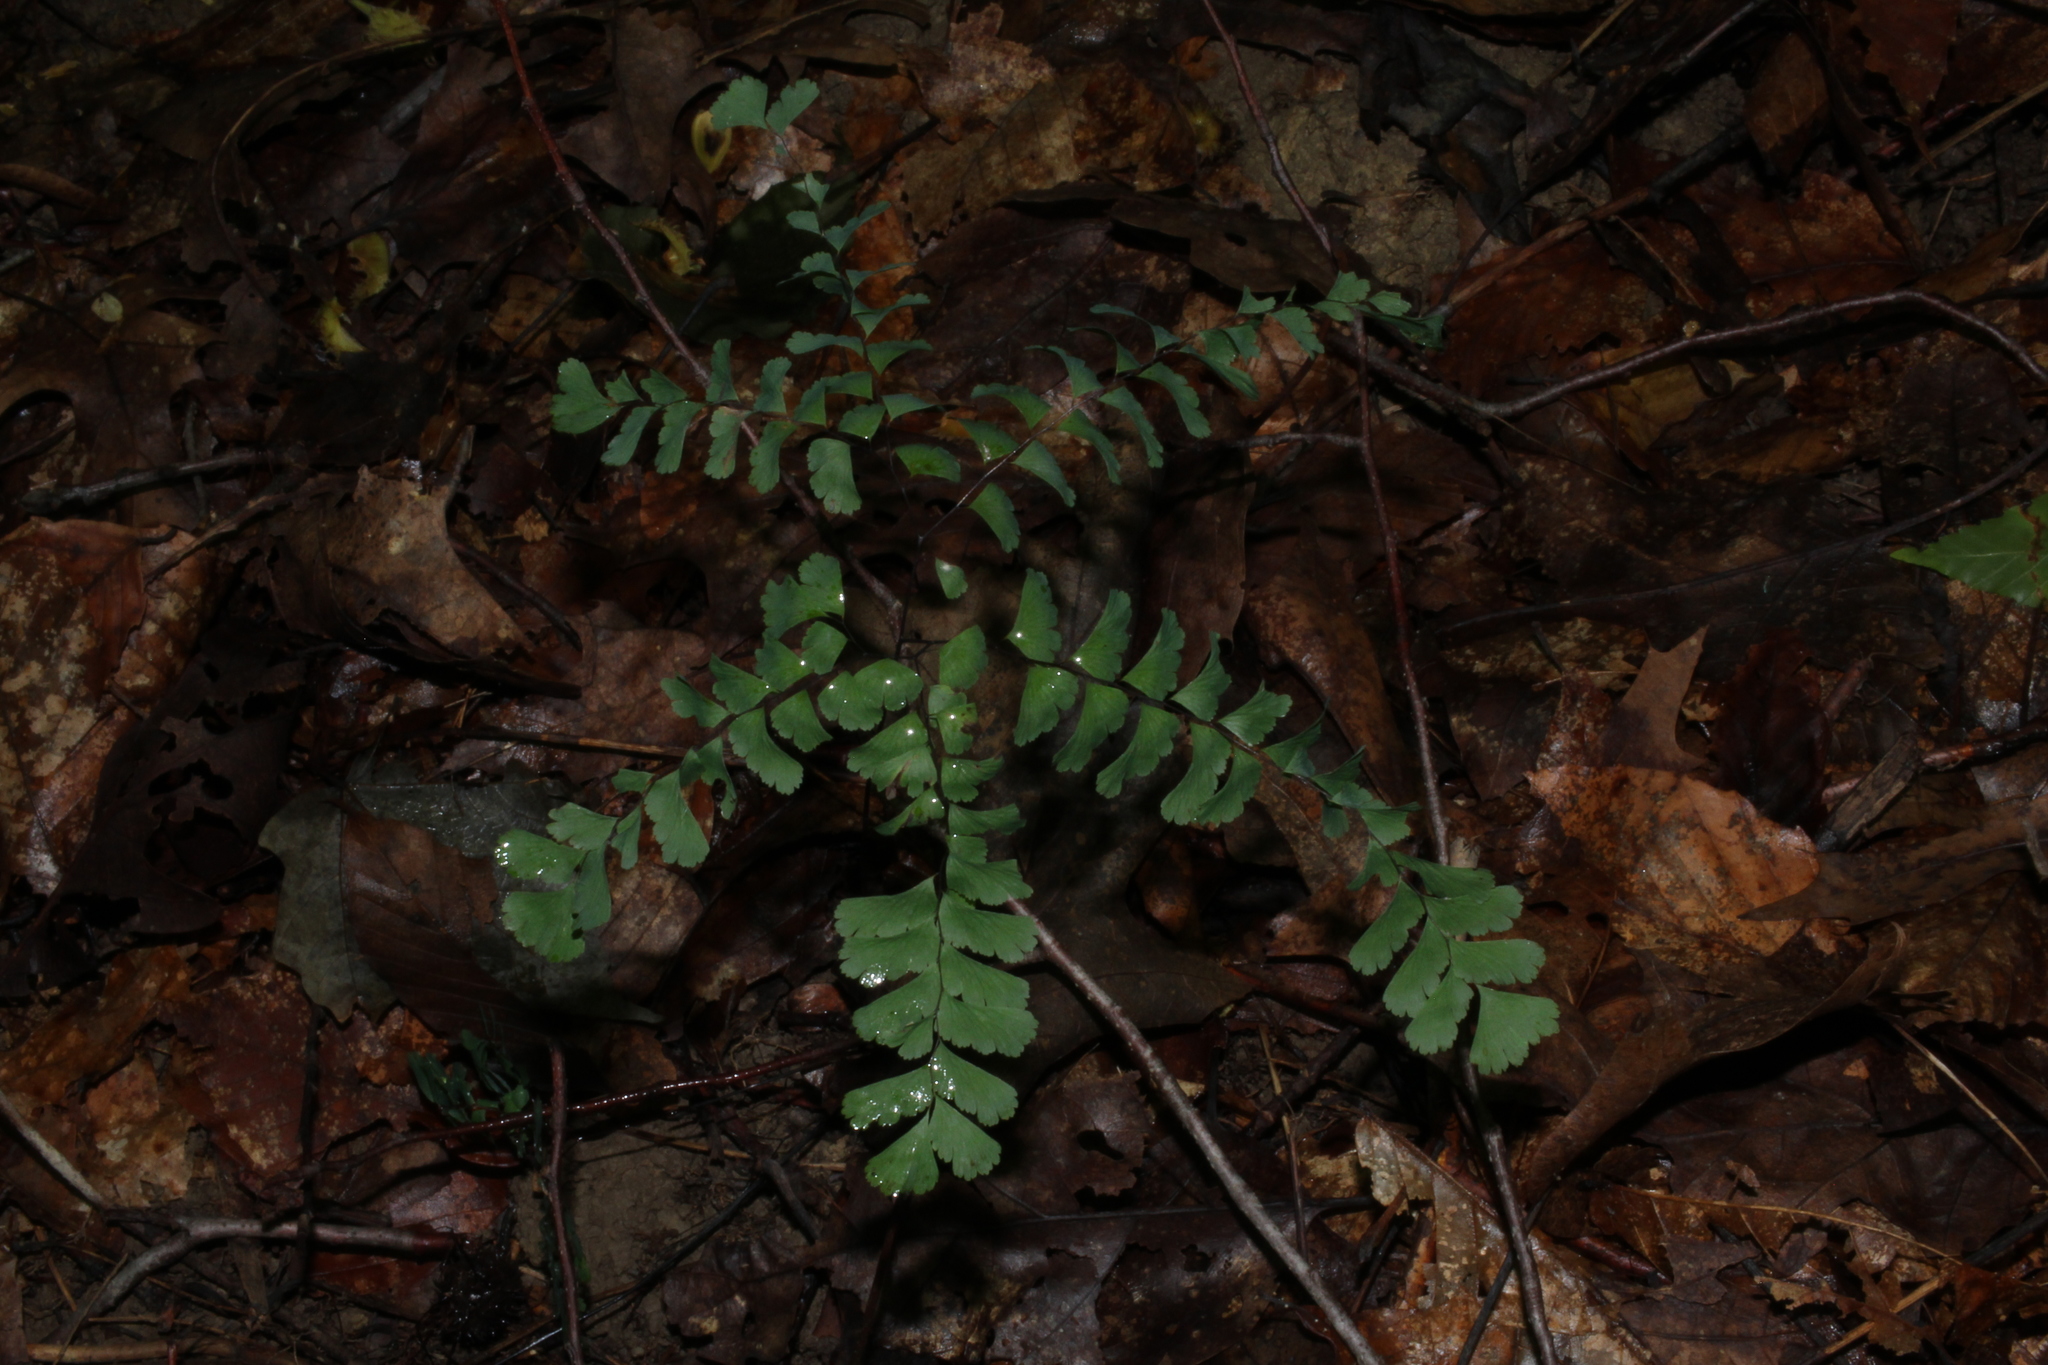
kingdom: Plantae
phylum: Tracheophyta
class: Polypodiopsida
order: Polypodiales
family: Pteridaceae
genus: Adiantum
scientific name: Adiantum pedatum
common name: Five-finger fern
